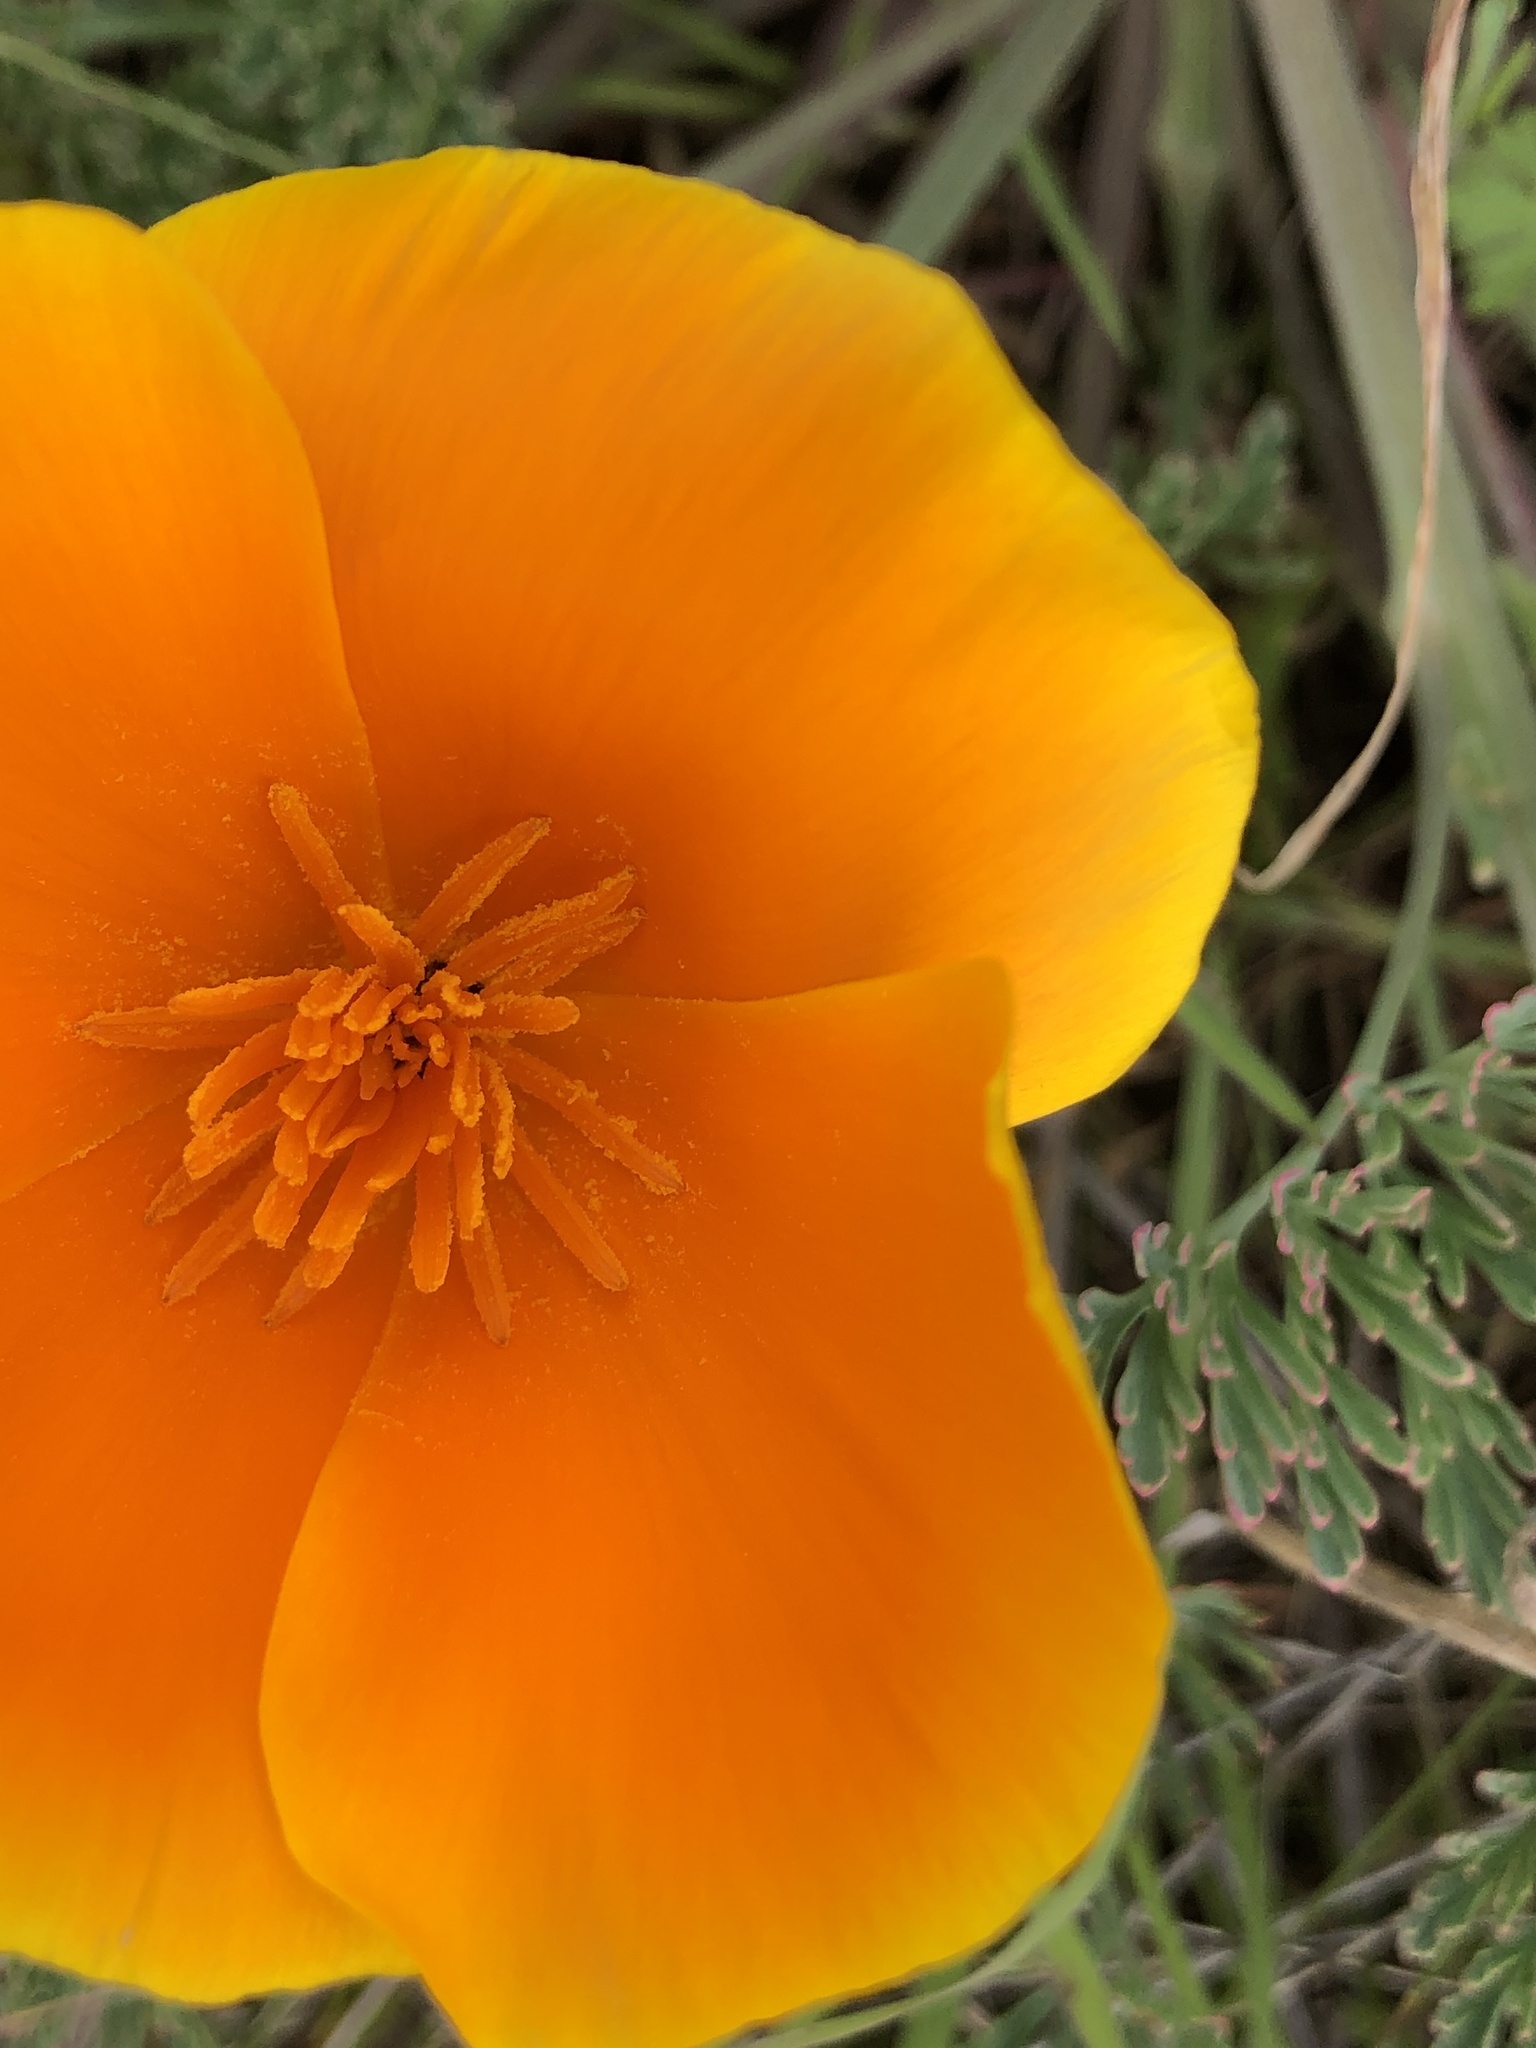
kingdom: Plantae
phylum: Tracheophyta
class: Magnoliopsida
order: Ranunculales
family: Papaveraceae
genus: Eschscholzia
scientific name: Eschscholzia californica
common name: California poppy
